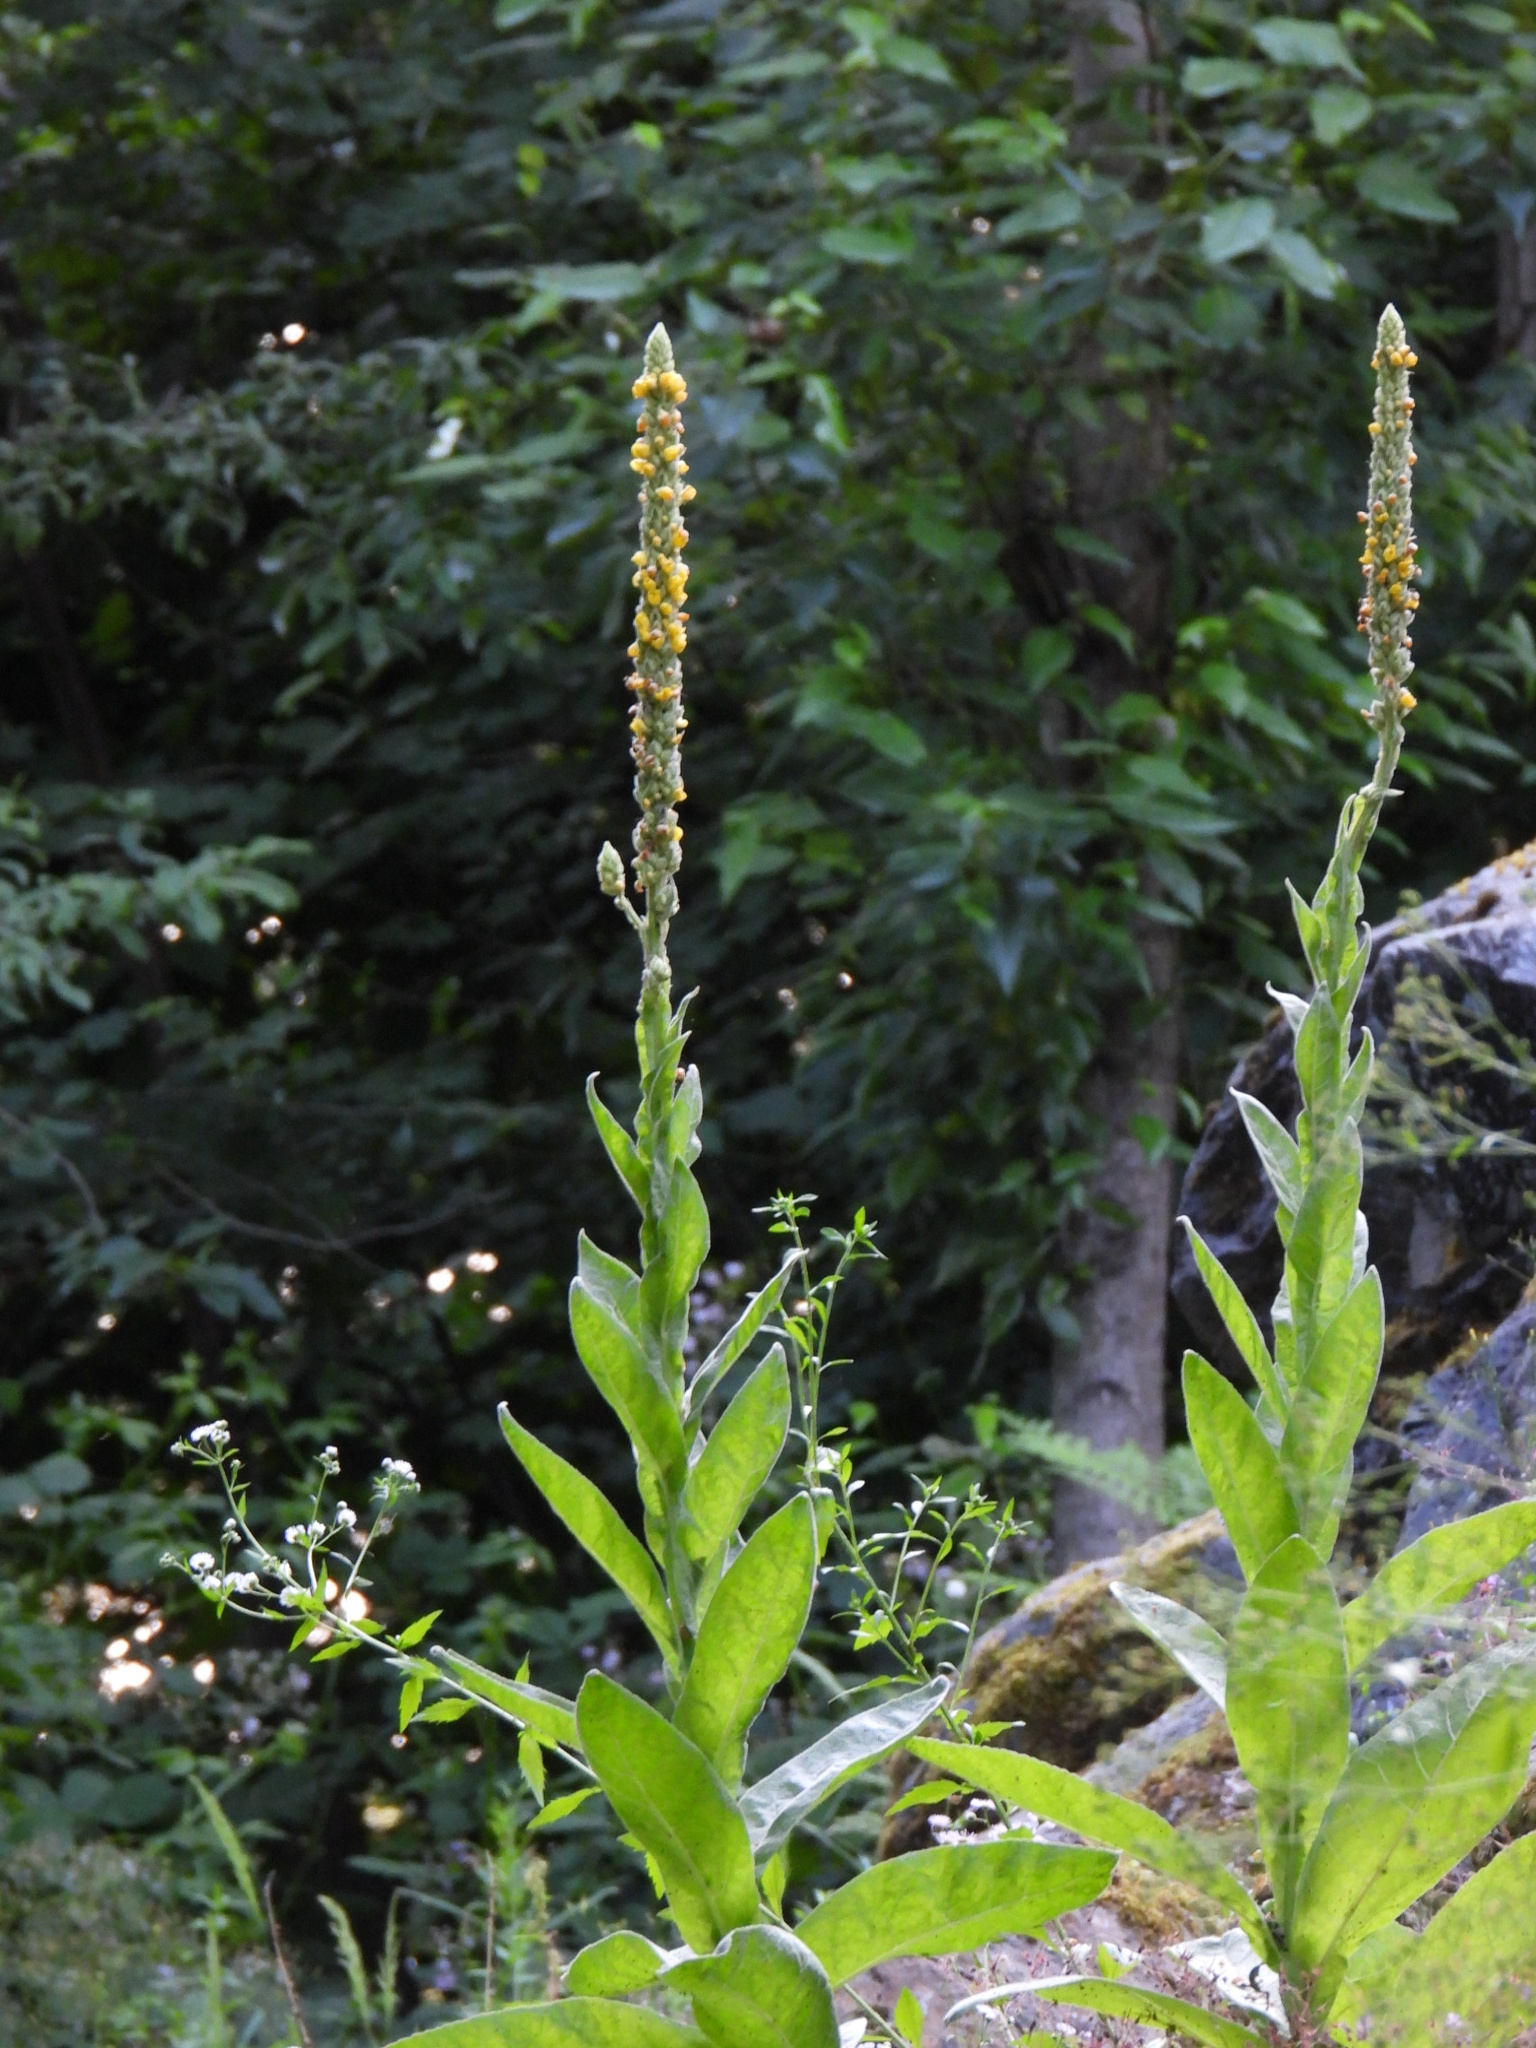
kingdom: Plantae
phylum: Tracheophyta
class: Magnoliopsida
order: Lamiales
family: Scrophulariaceae
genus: Verbascum
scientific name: Verbascum thapsus
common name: Common mullein
